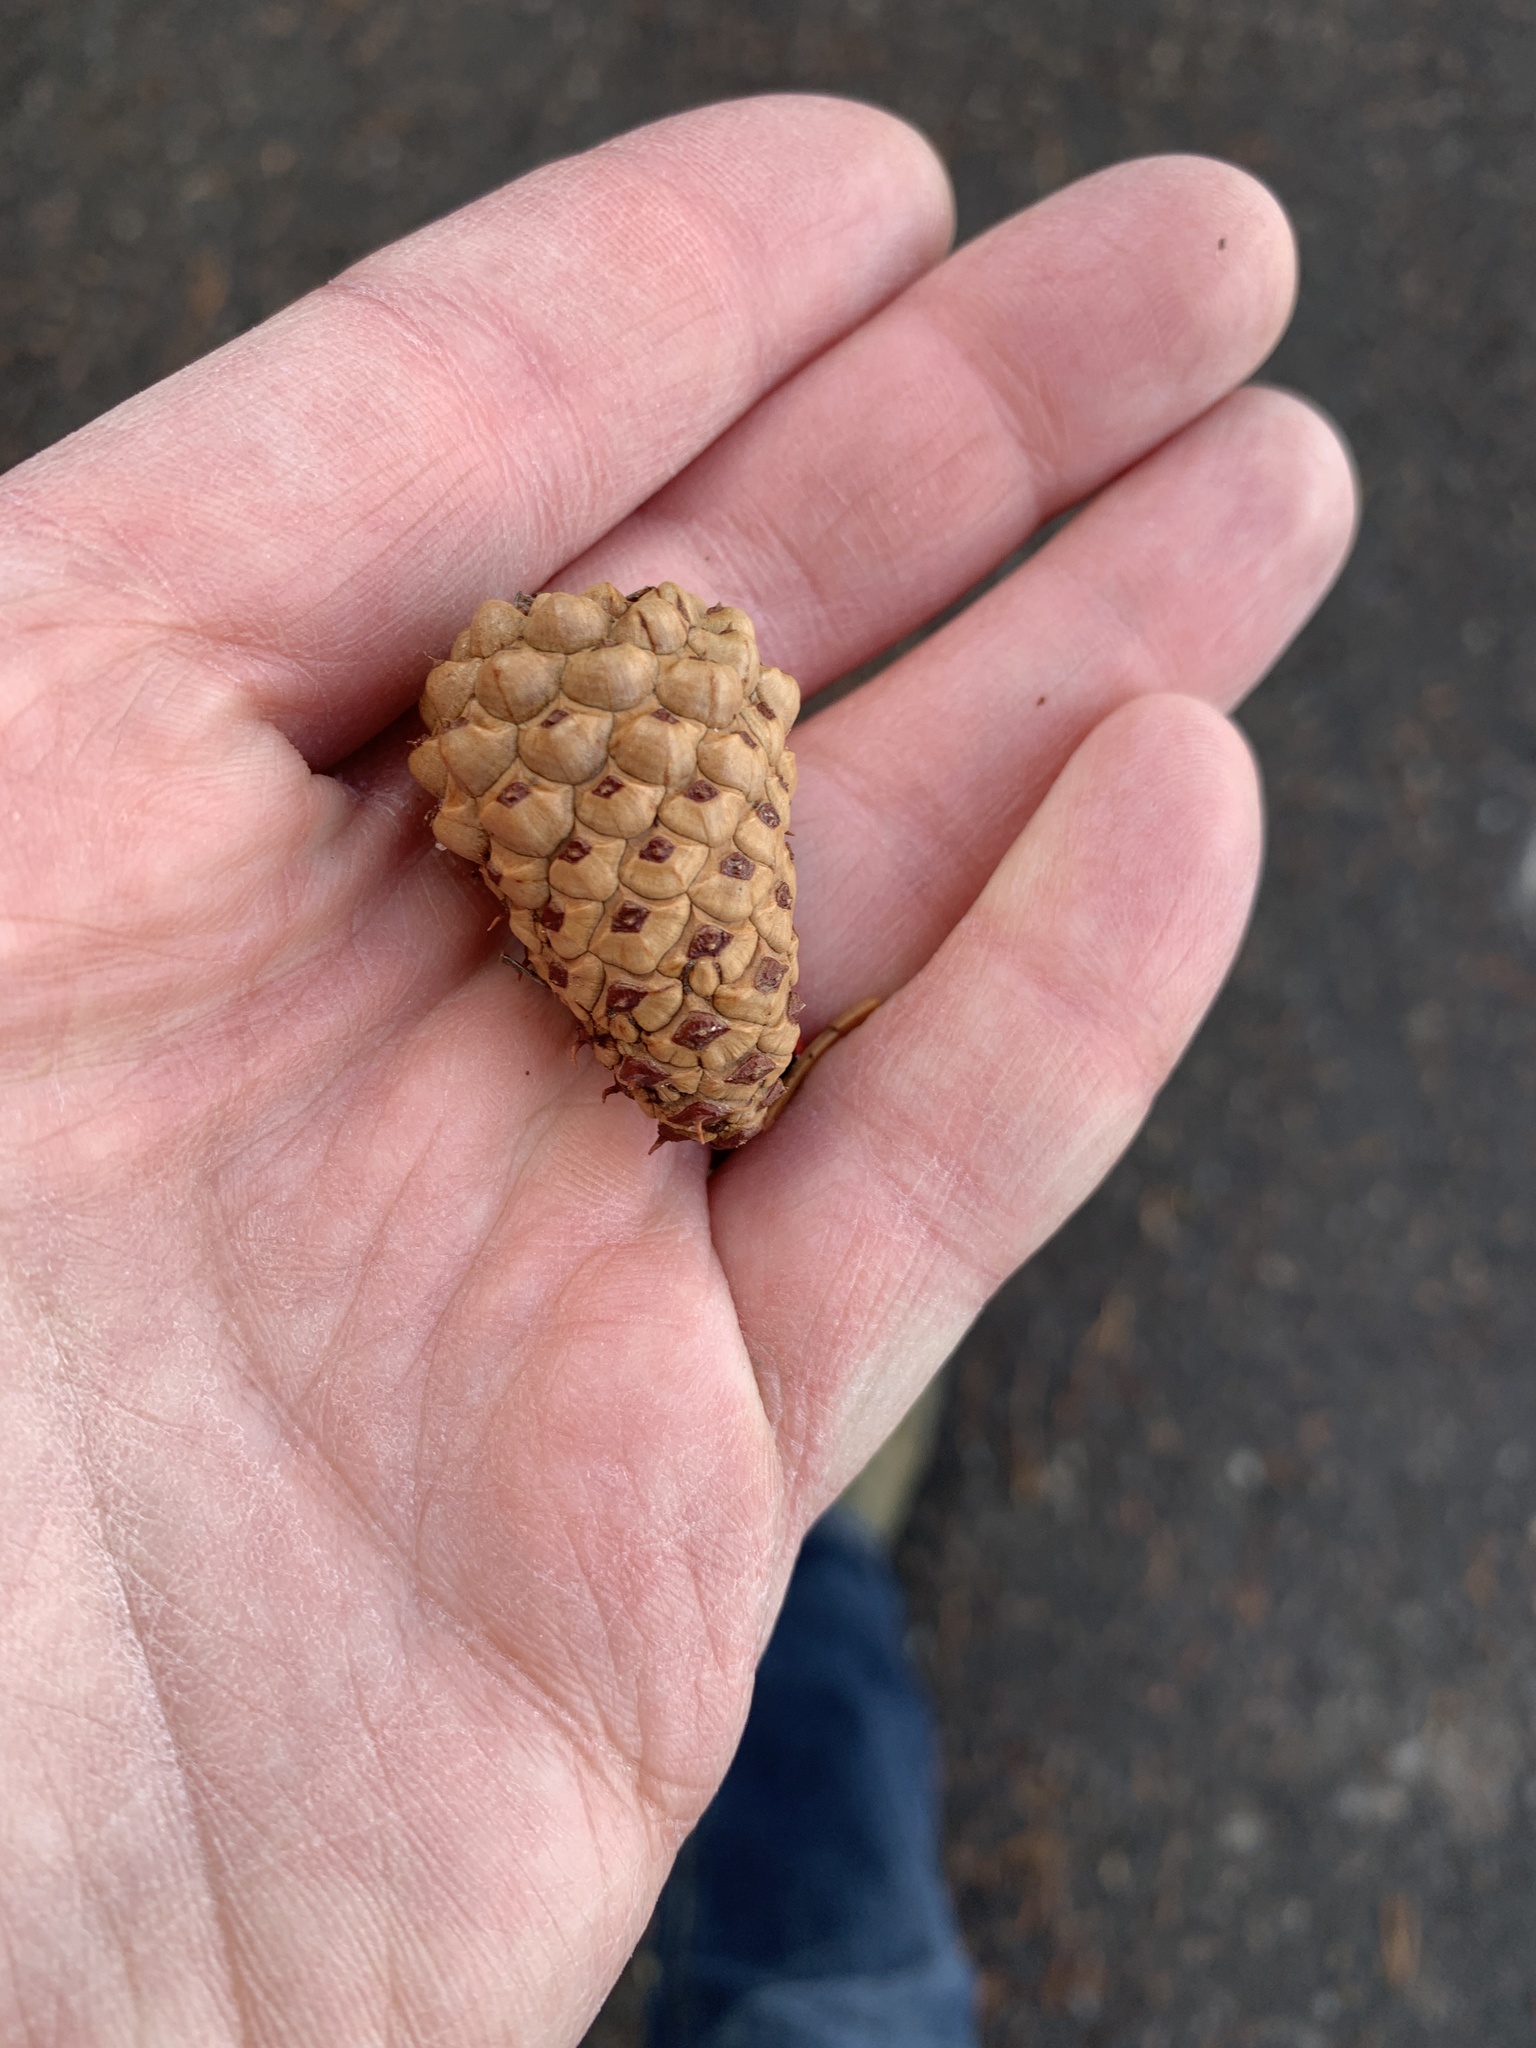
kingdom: Plantae
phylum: Tracheophyta
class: Pinopsida
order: Pinales
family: Pinaceae
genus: Pinus
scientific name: Pinus contorta
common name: Lodgepole pine
